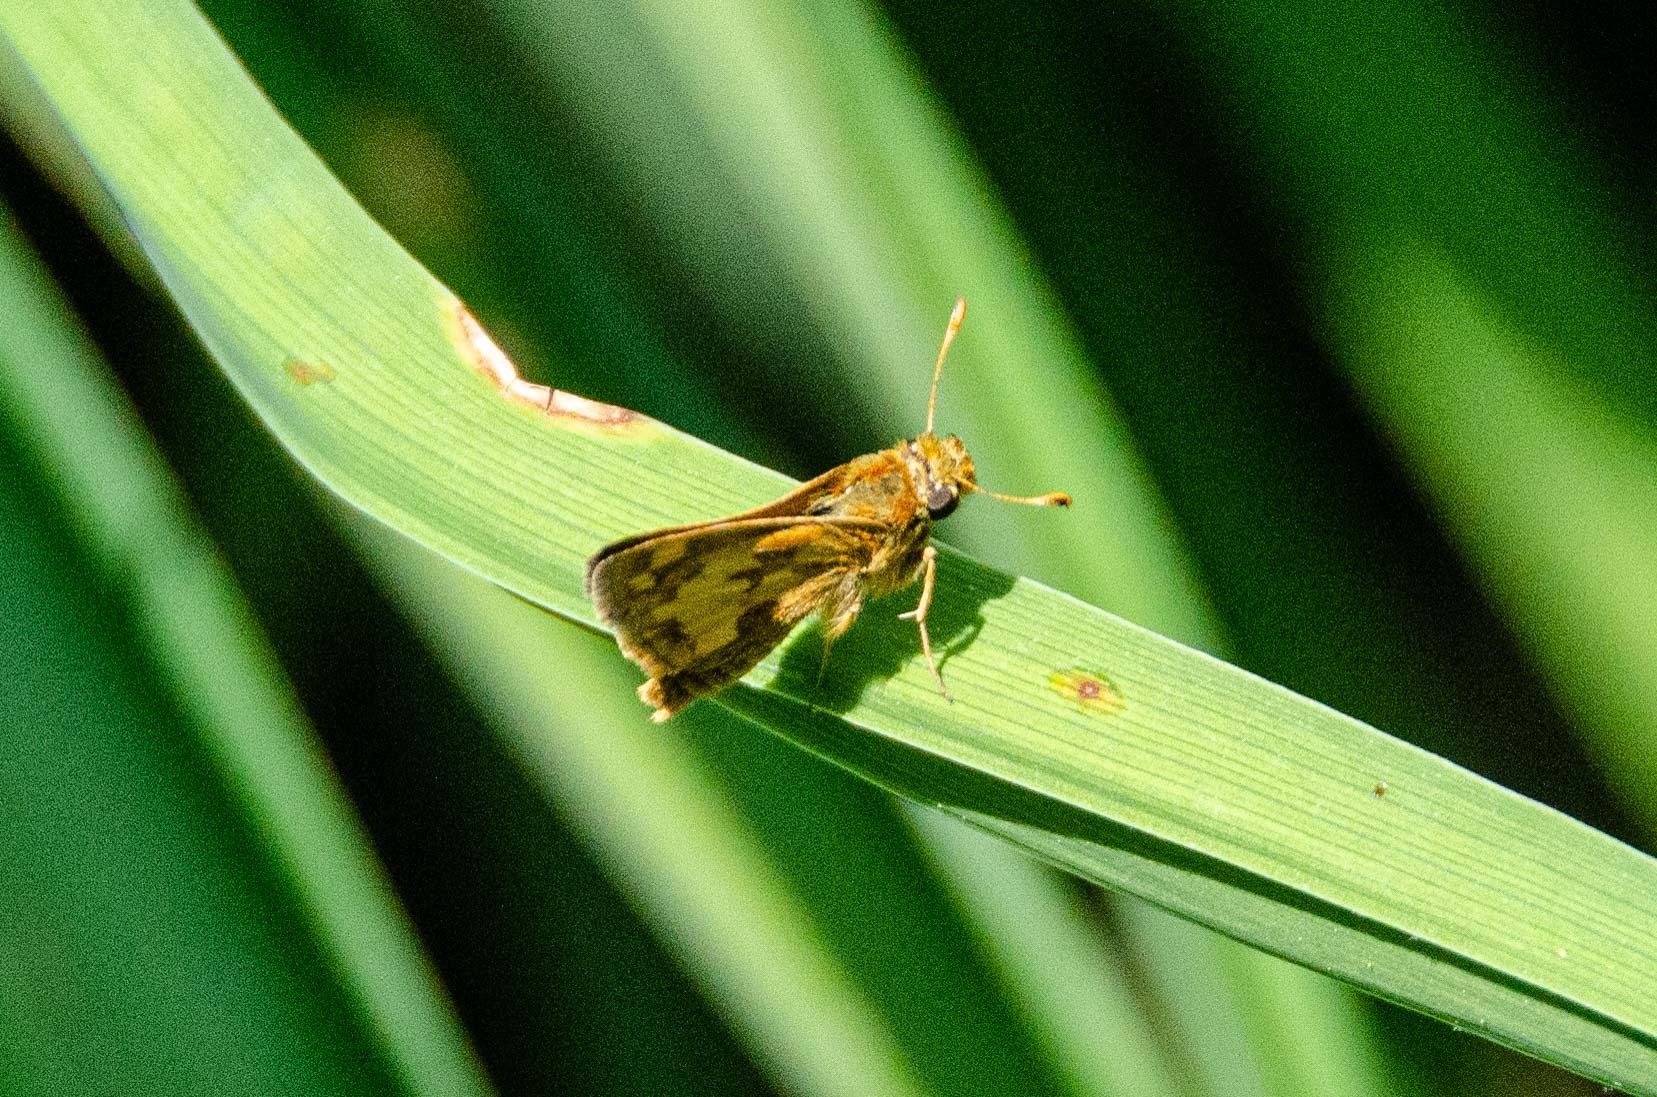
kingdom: Animalia
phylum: Arthropoda
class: Insecta
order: Lepidoptera
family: Hesperiidae
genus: Polites
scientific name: Polites coras
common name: Peck's skipper
